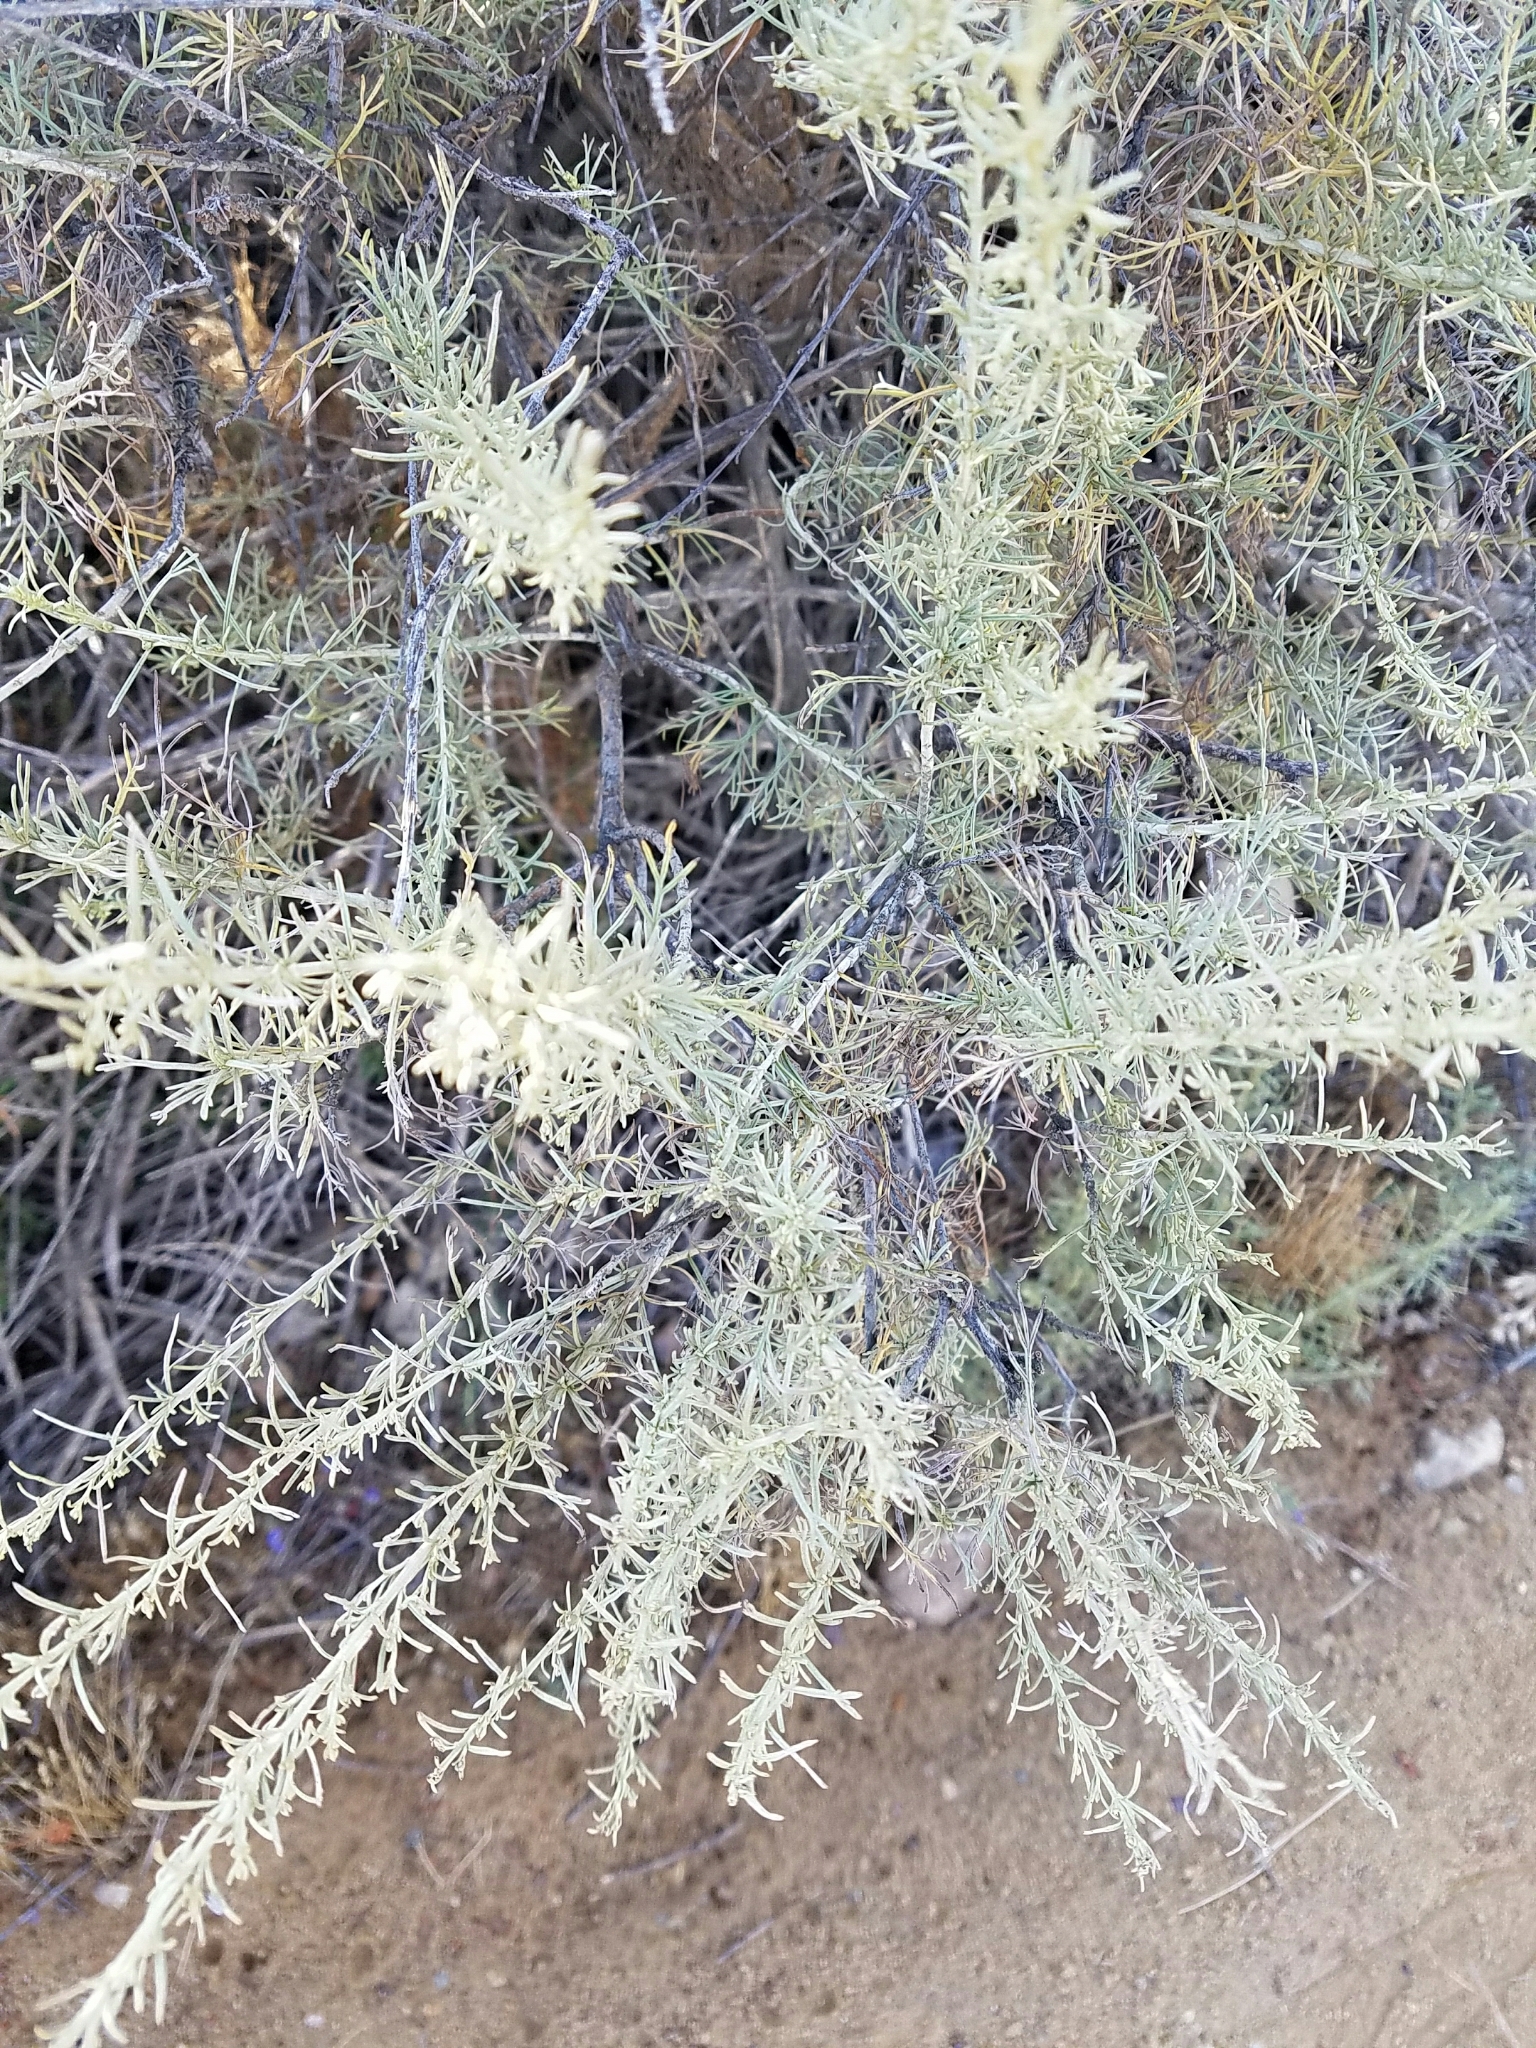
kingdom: Plantae
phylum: Tracheophyta
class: Magnoliopsida
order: Asterales
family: Asteraceae
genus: Artemisia
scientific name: Artemisia californica
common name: California sagebrush
